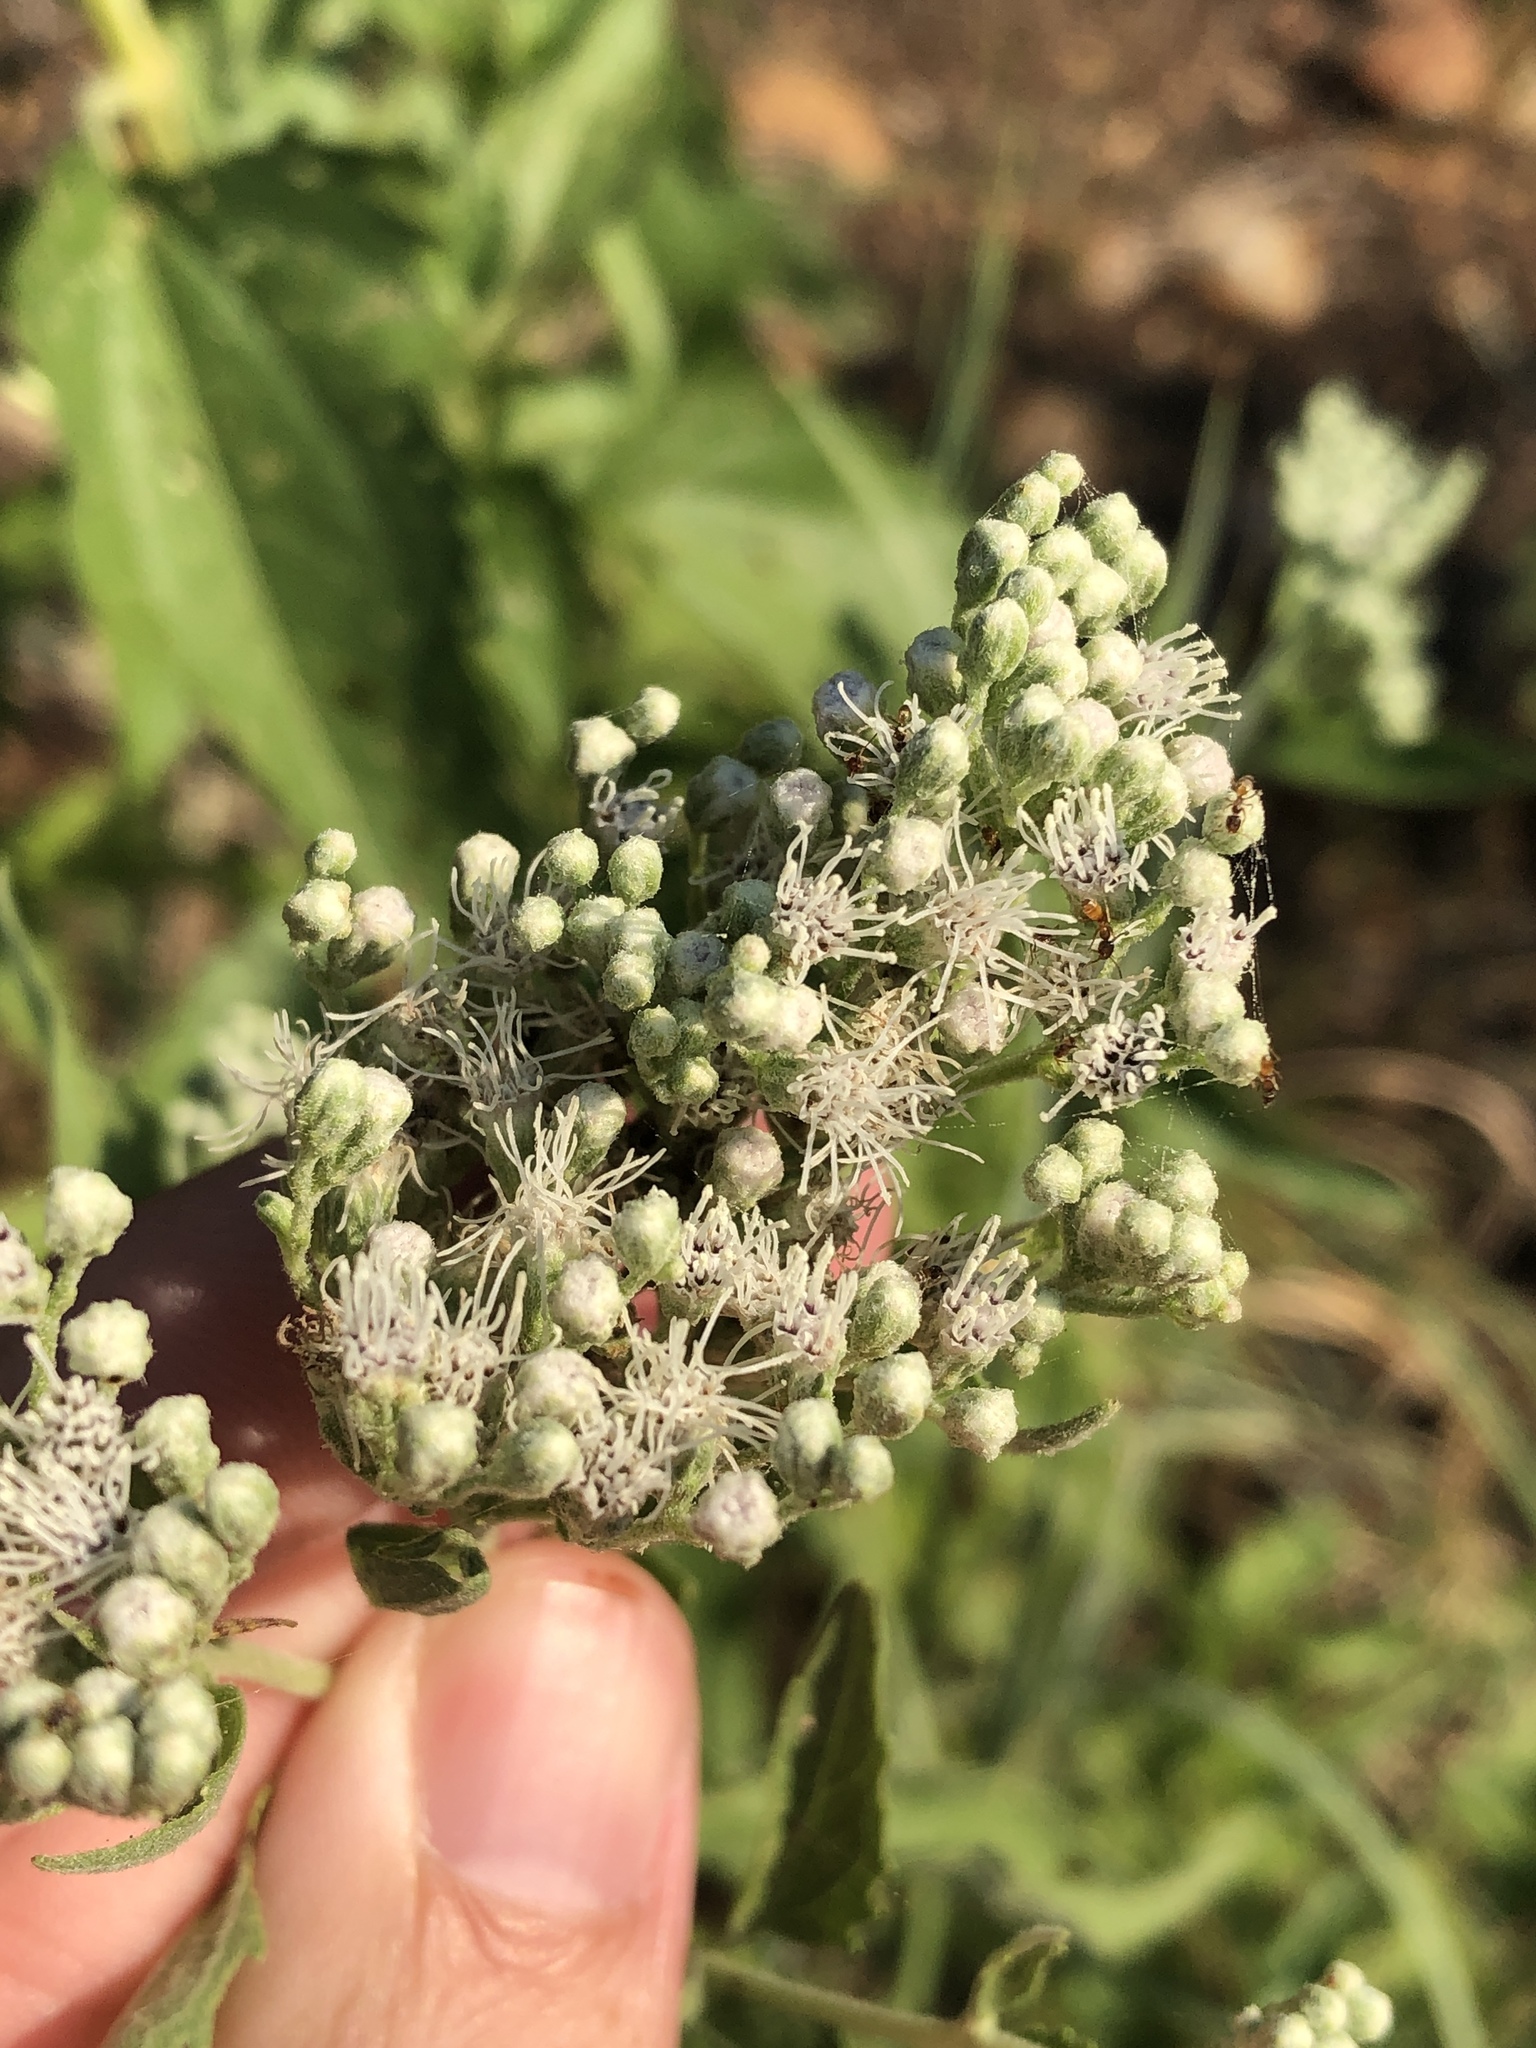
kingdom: Plantae
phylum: Tracheophyta
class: Magnoliopsida
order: Asterales
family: Asteraceae
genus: Eupatorium
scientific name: Eupatorium serotinum
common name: Late boneset
